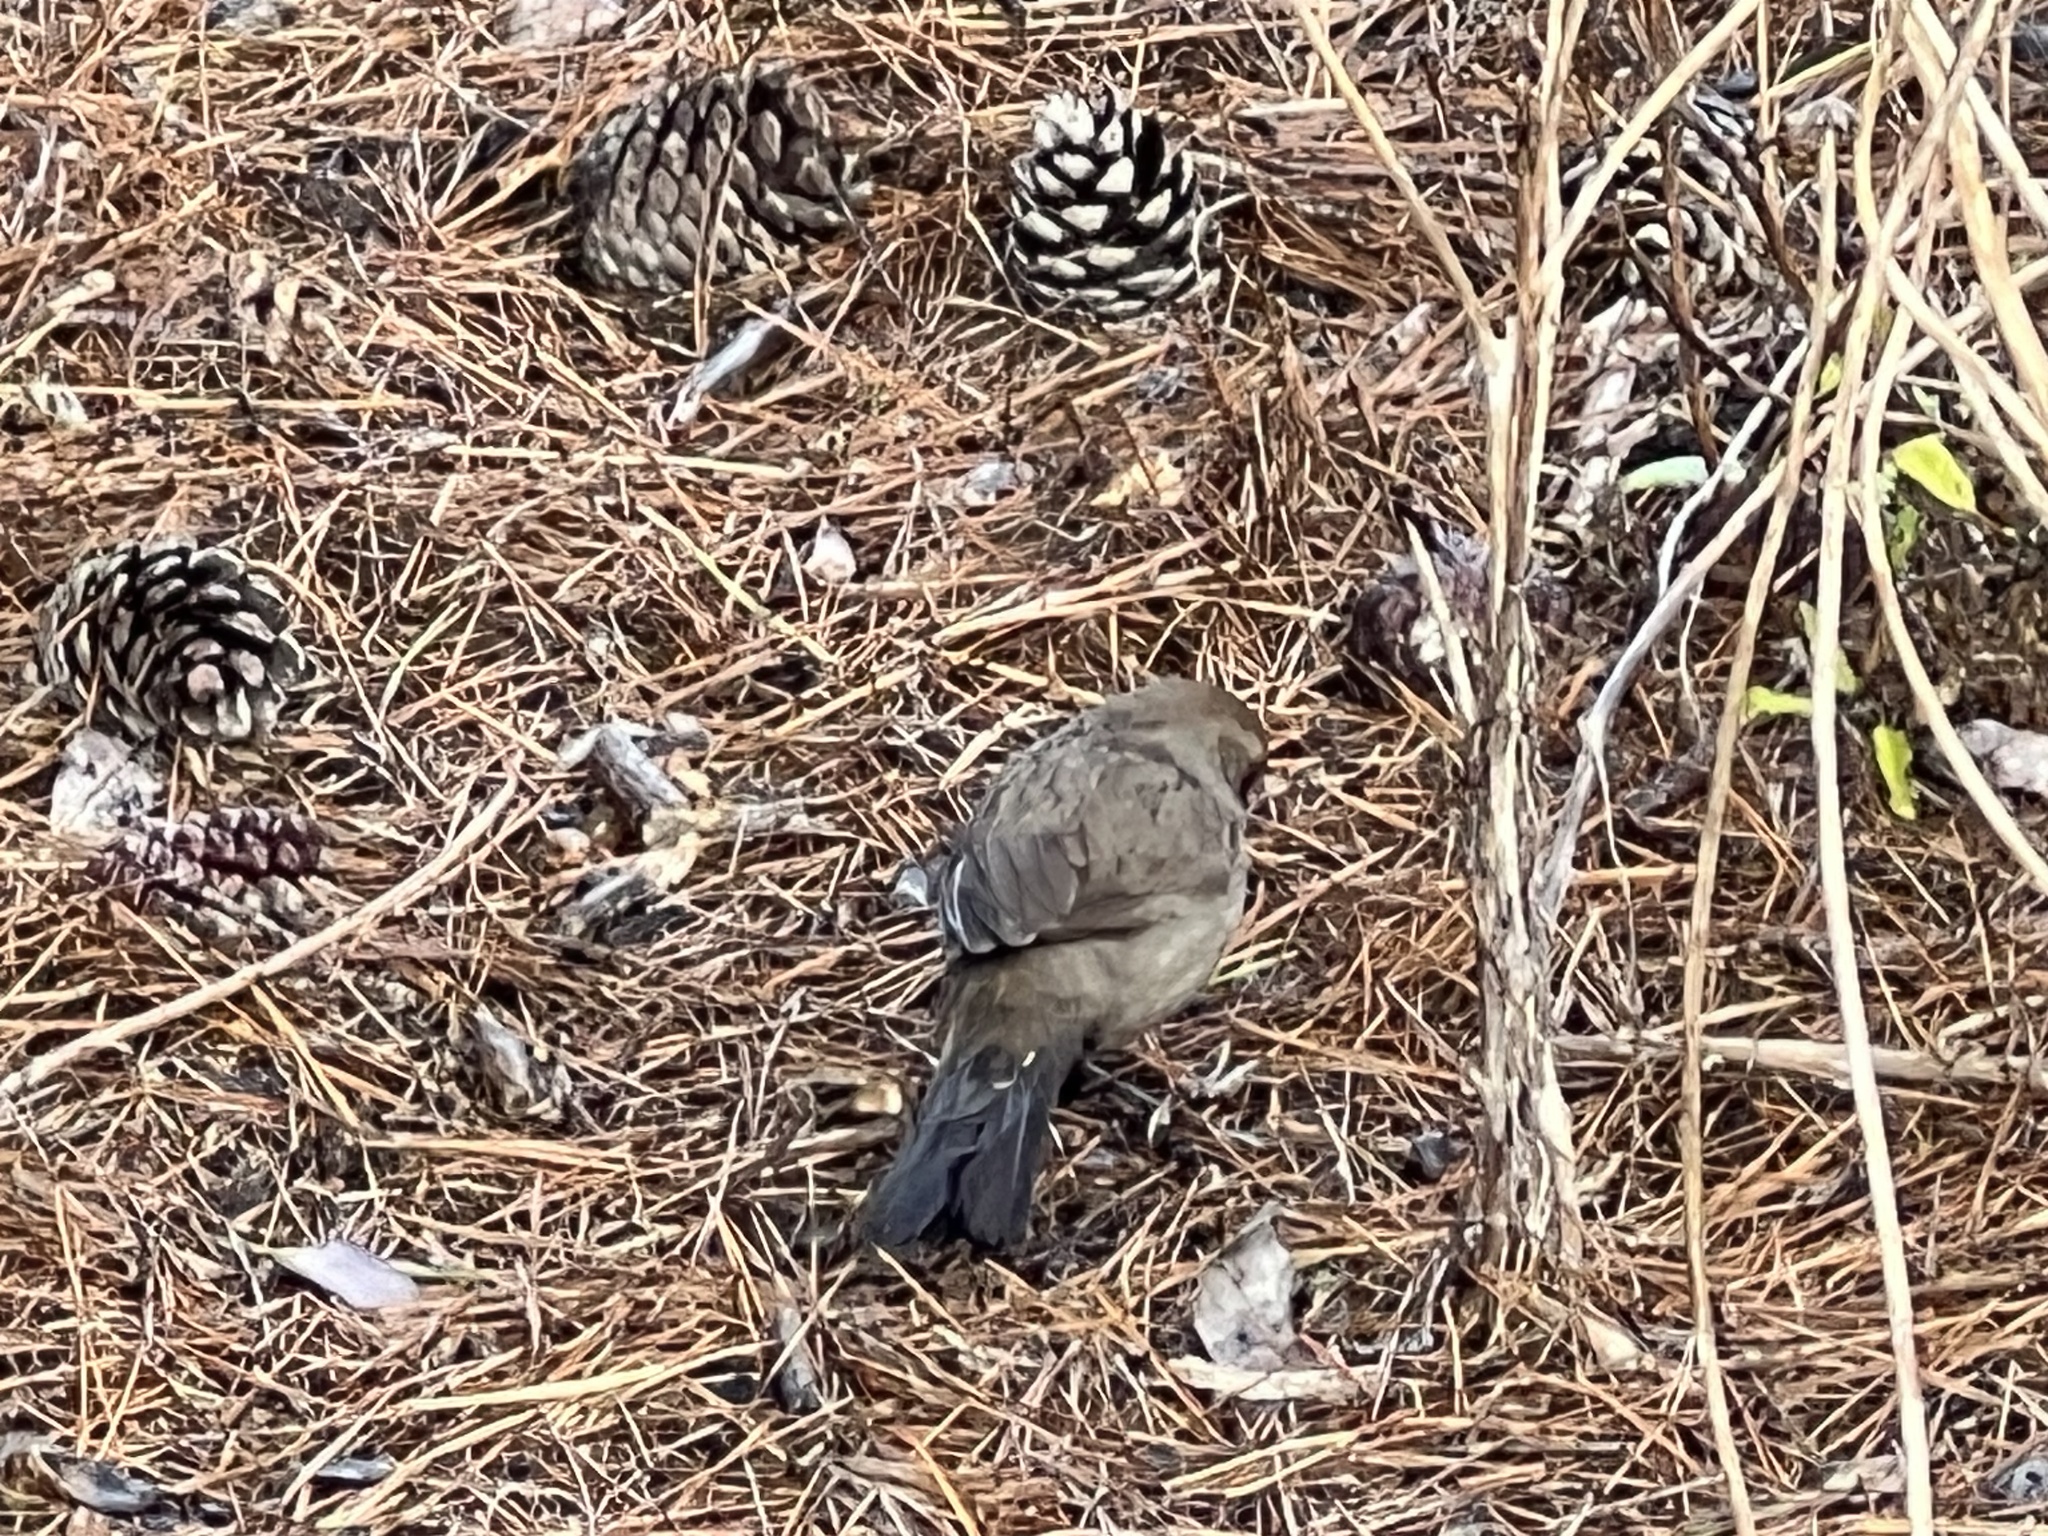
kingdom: Animalia
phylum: Chordata
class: Aves
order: Passeriformes
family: Passerellidae
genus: Melozone
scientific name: Melozone crissalis
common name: California towhee
